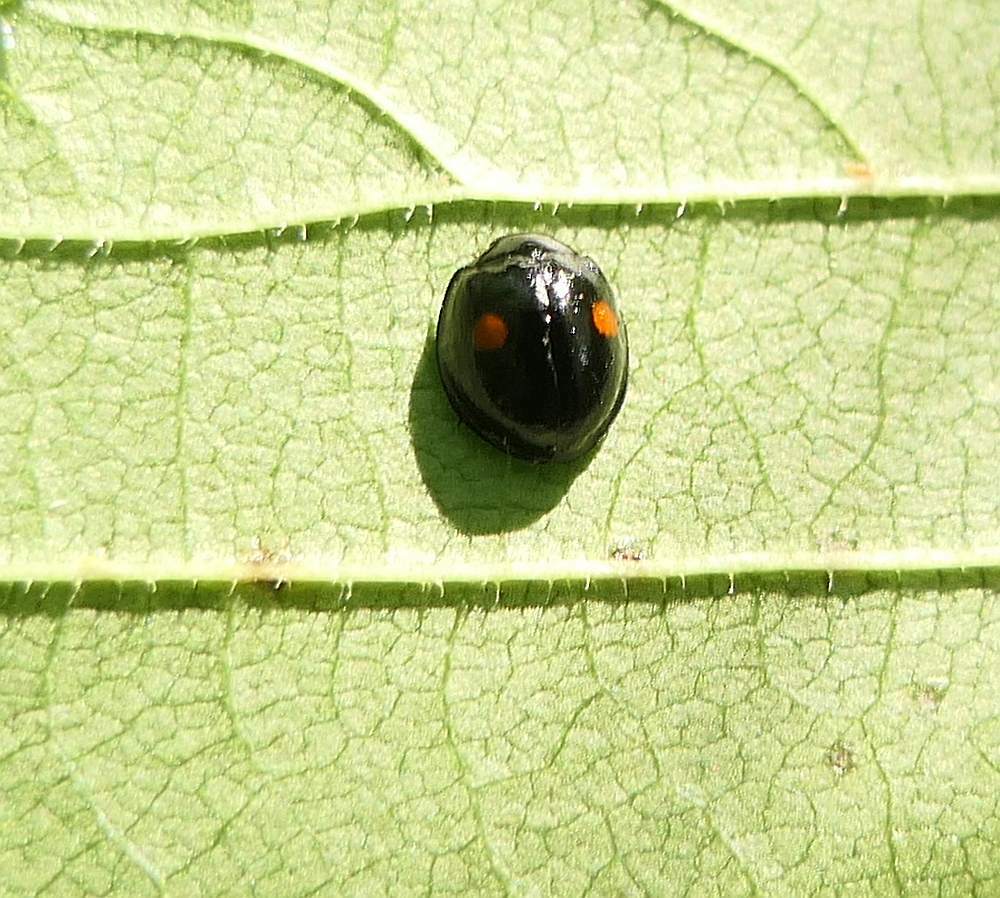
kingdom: Animalia
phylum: Arthropoda
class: Insecta
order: Coleoptera
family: Coccinellidae
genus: Chilocorus
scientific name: Chilocorus stigma
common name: Twicestabbed lady beetle
